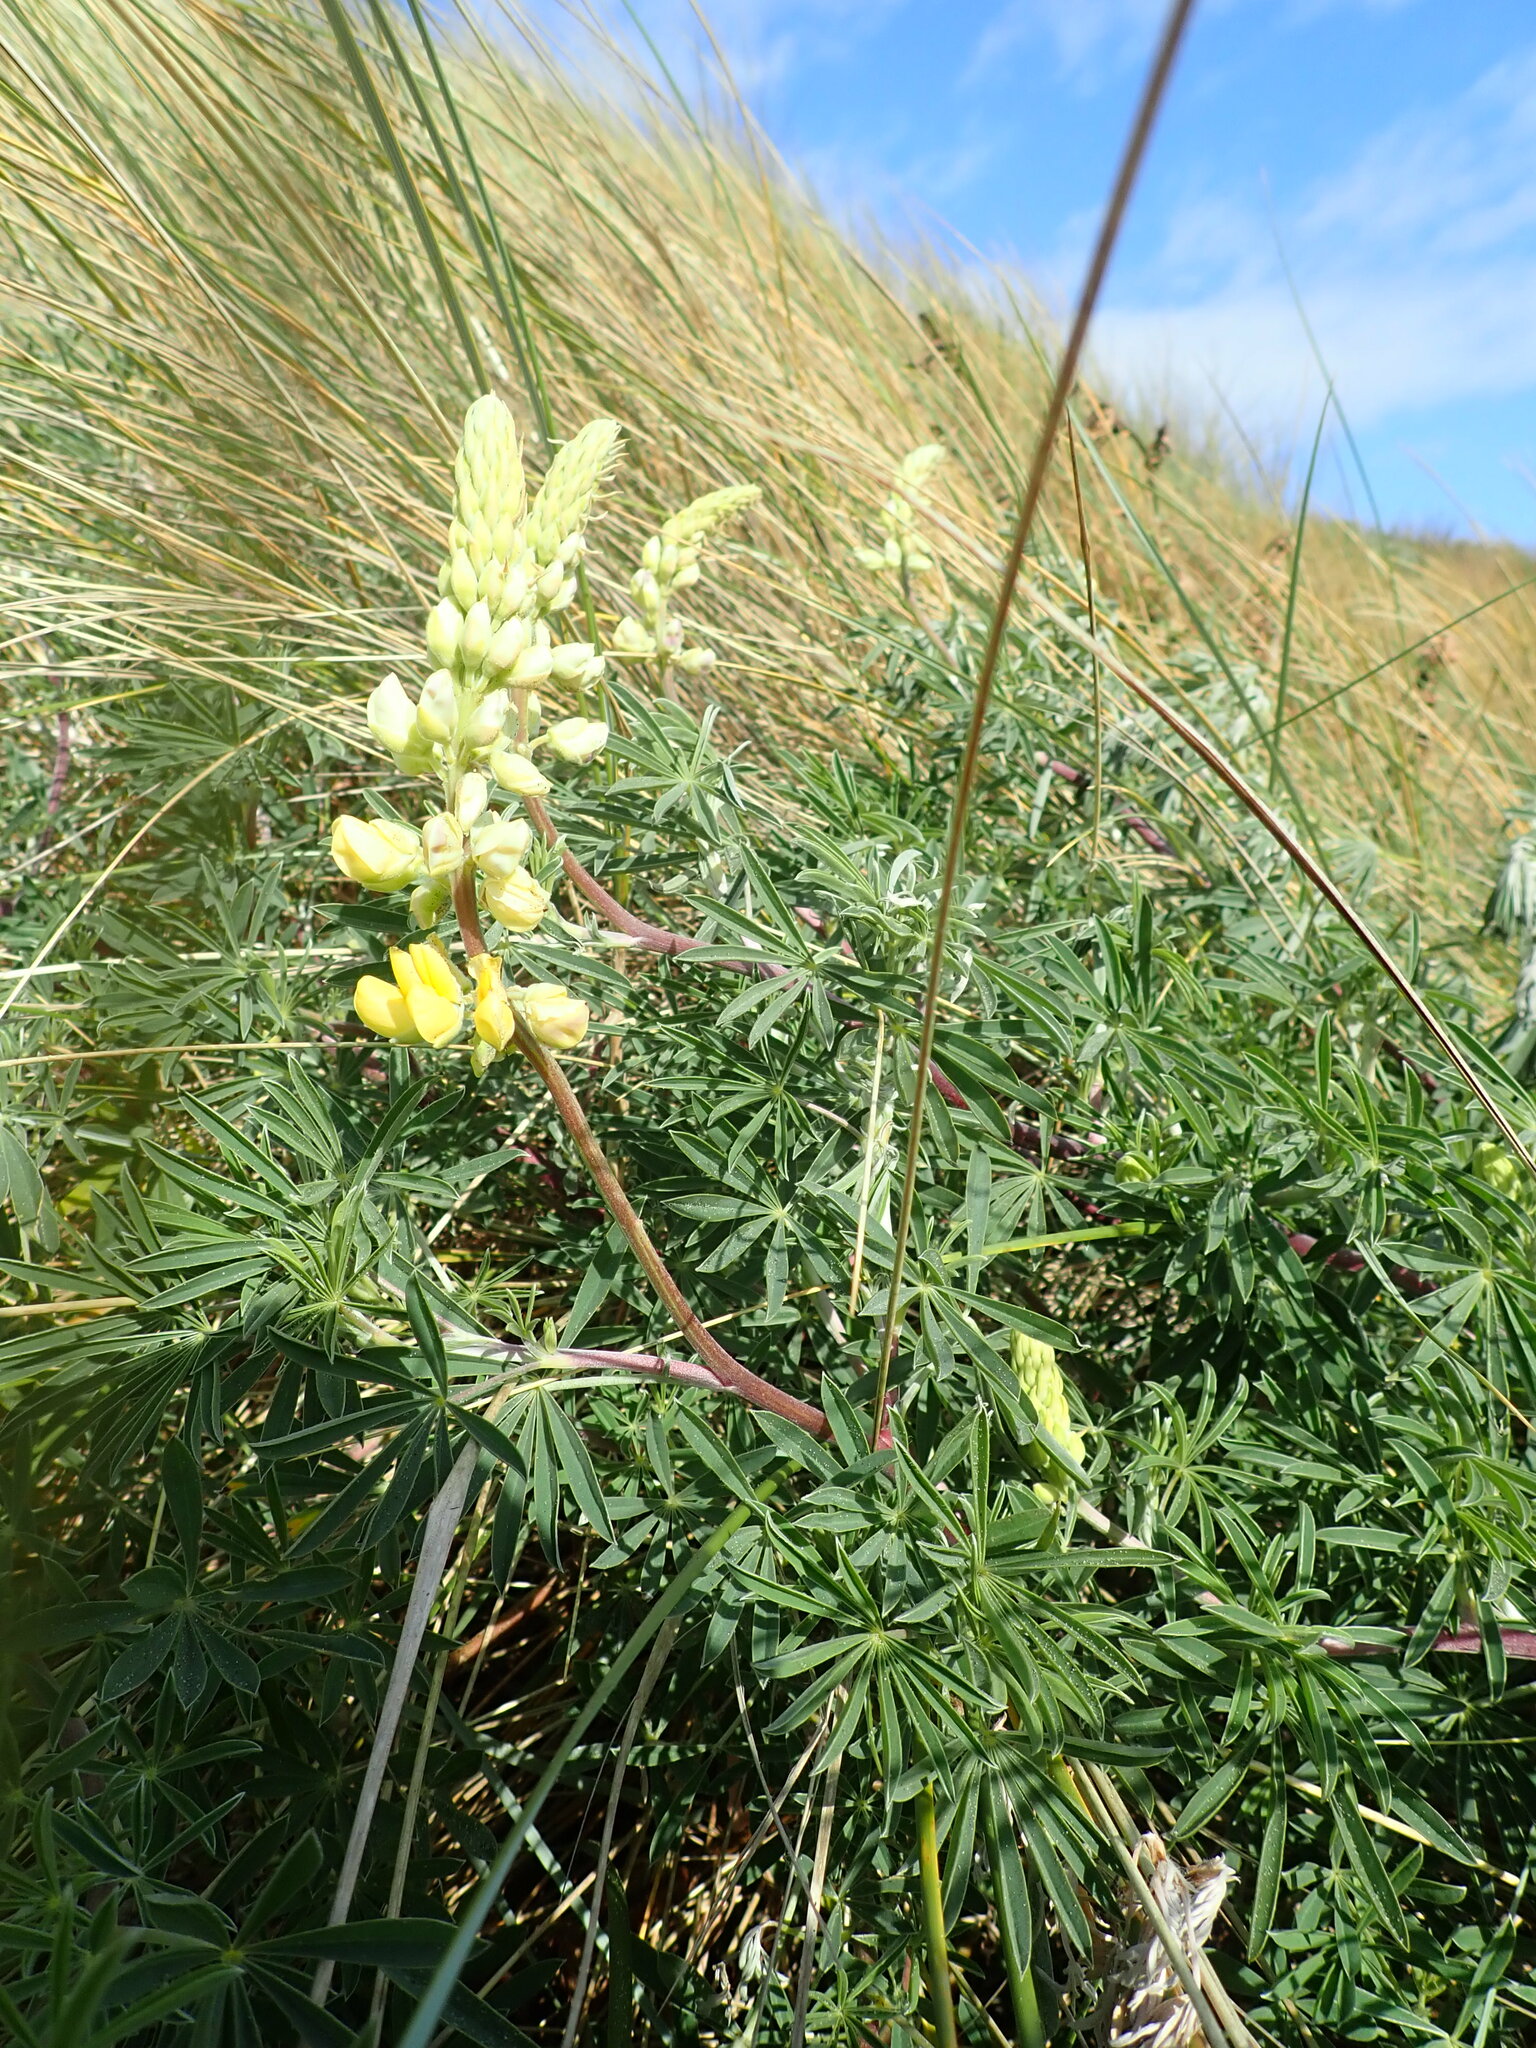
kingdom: Plantae
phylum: Tracheophyta
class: Magnoliopsida
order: Fabales
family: Fabaceae
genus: Lupinus
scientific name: Lupinus arboreus
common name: Yellow bush lupine
